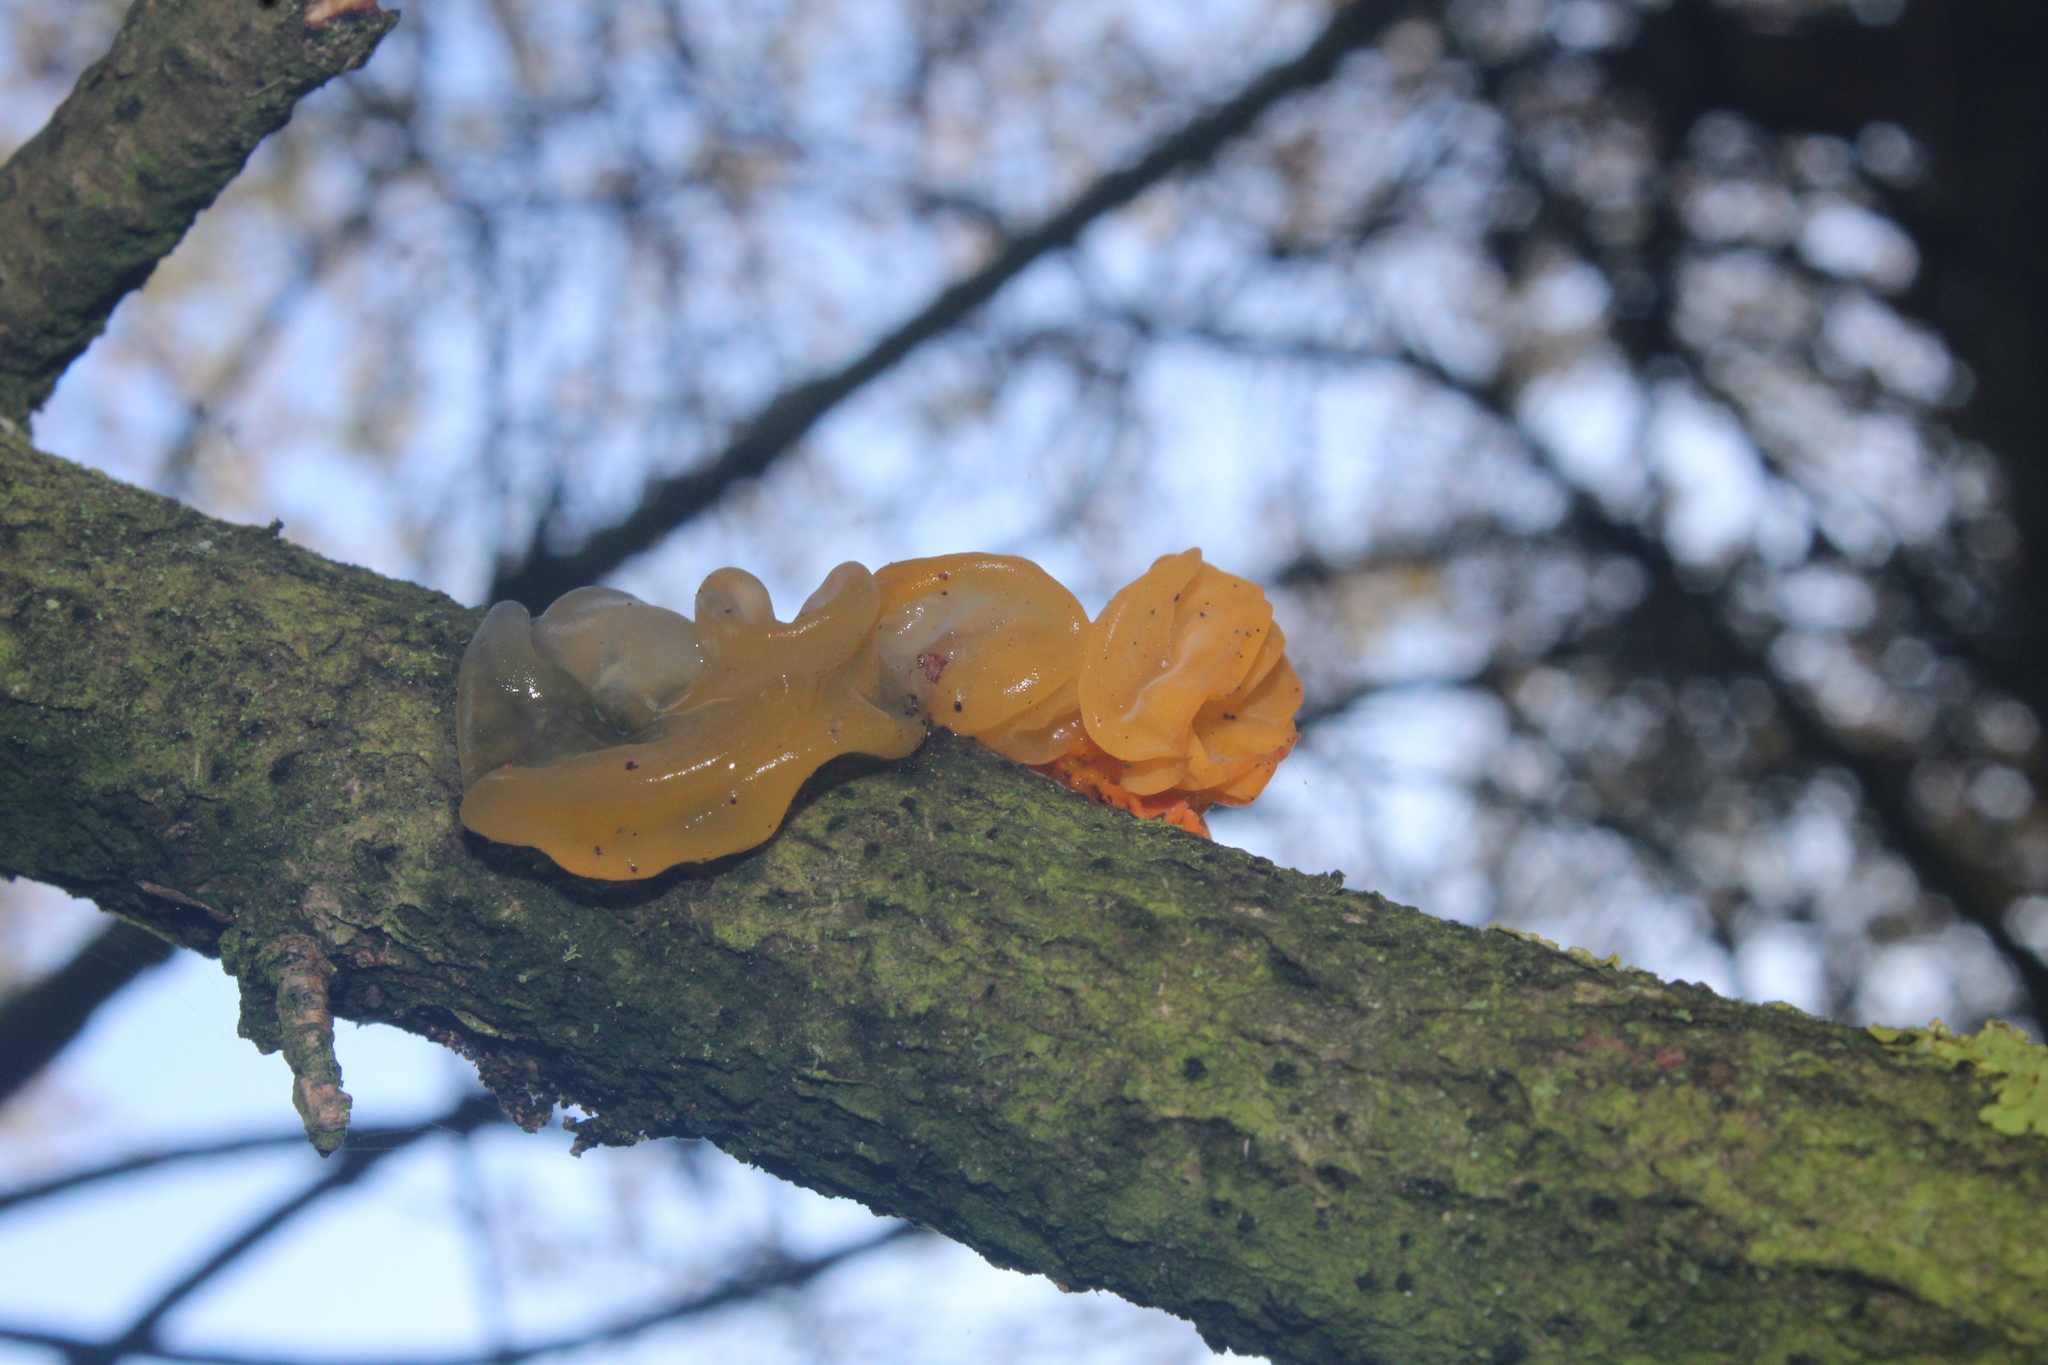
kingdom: Fungi
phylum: Basidiomycota
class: Tremellomycetes
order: Tremellales
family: Tremellaceae
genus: Tremella
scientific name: Tremella mesenterica
